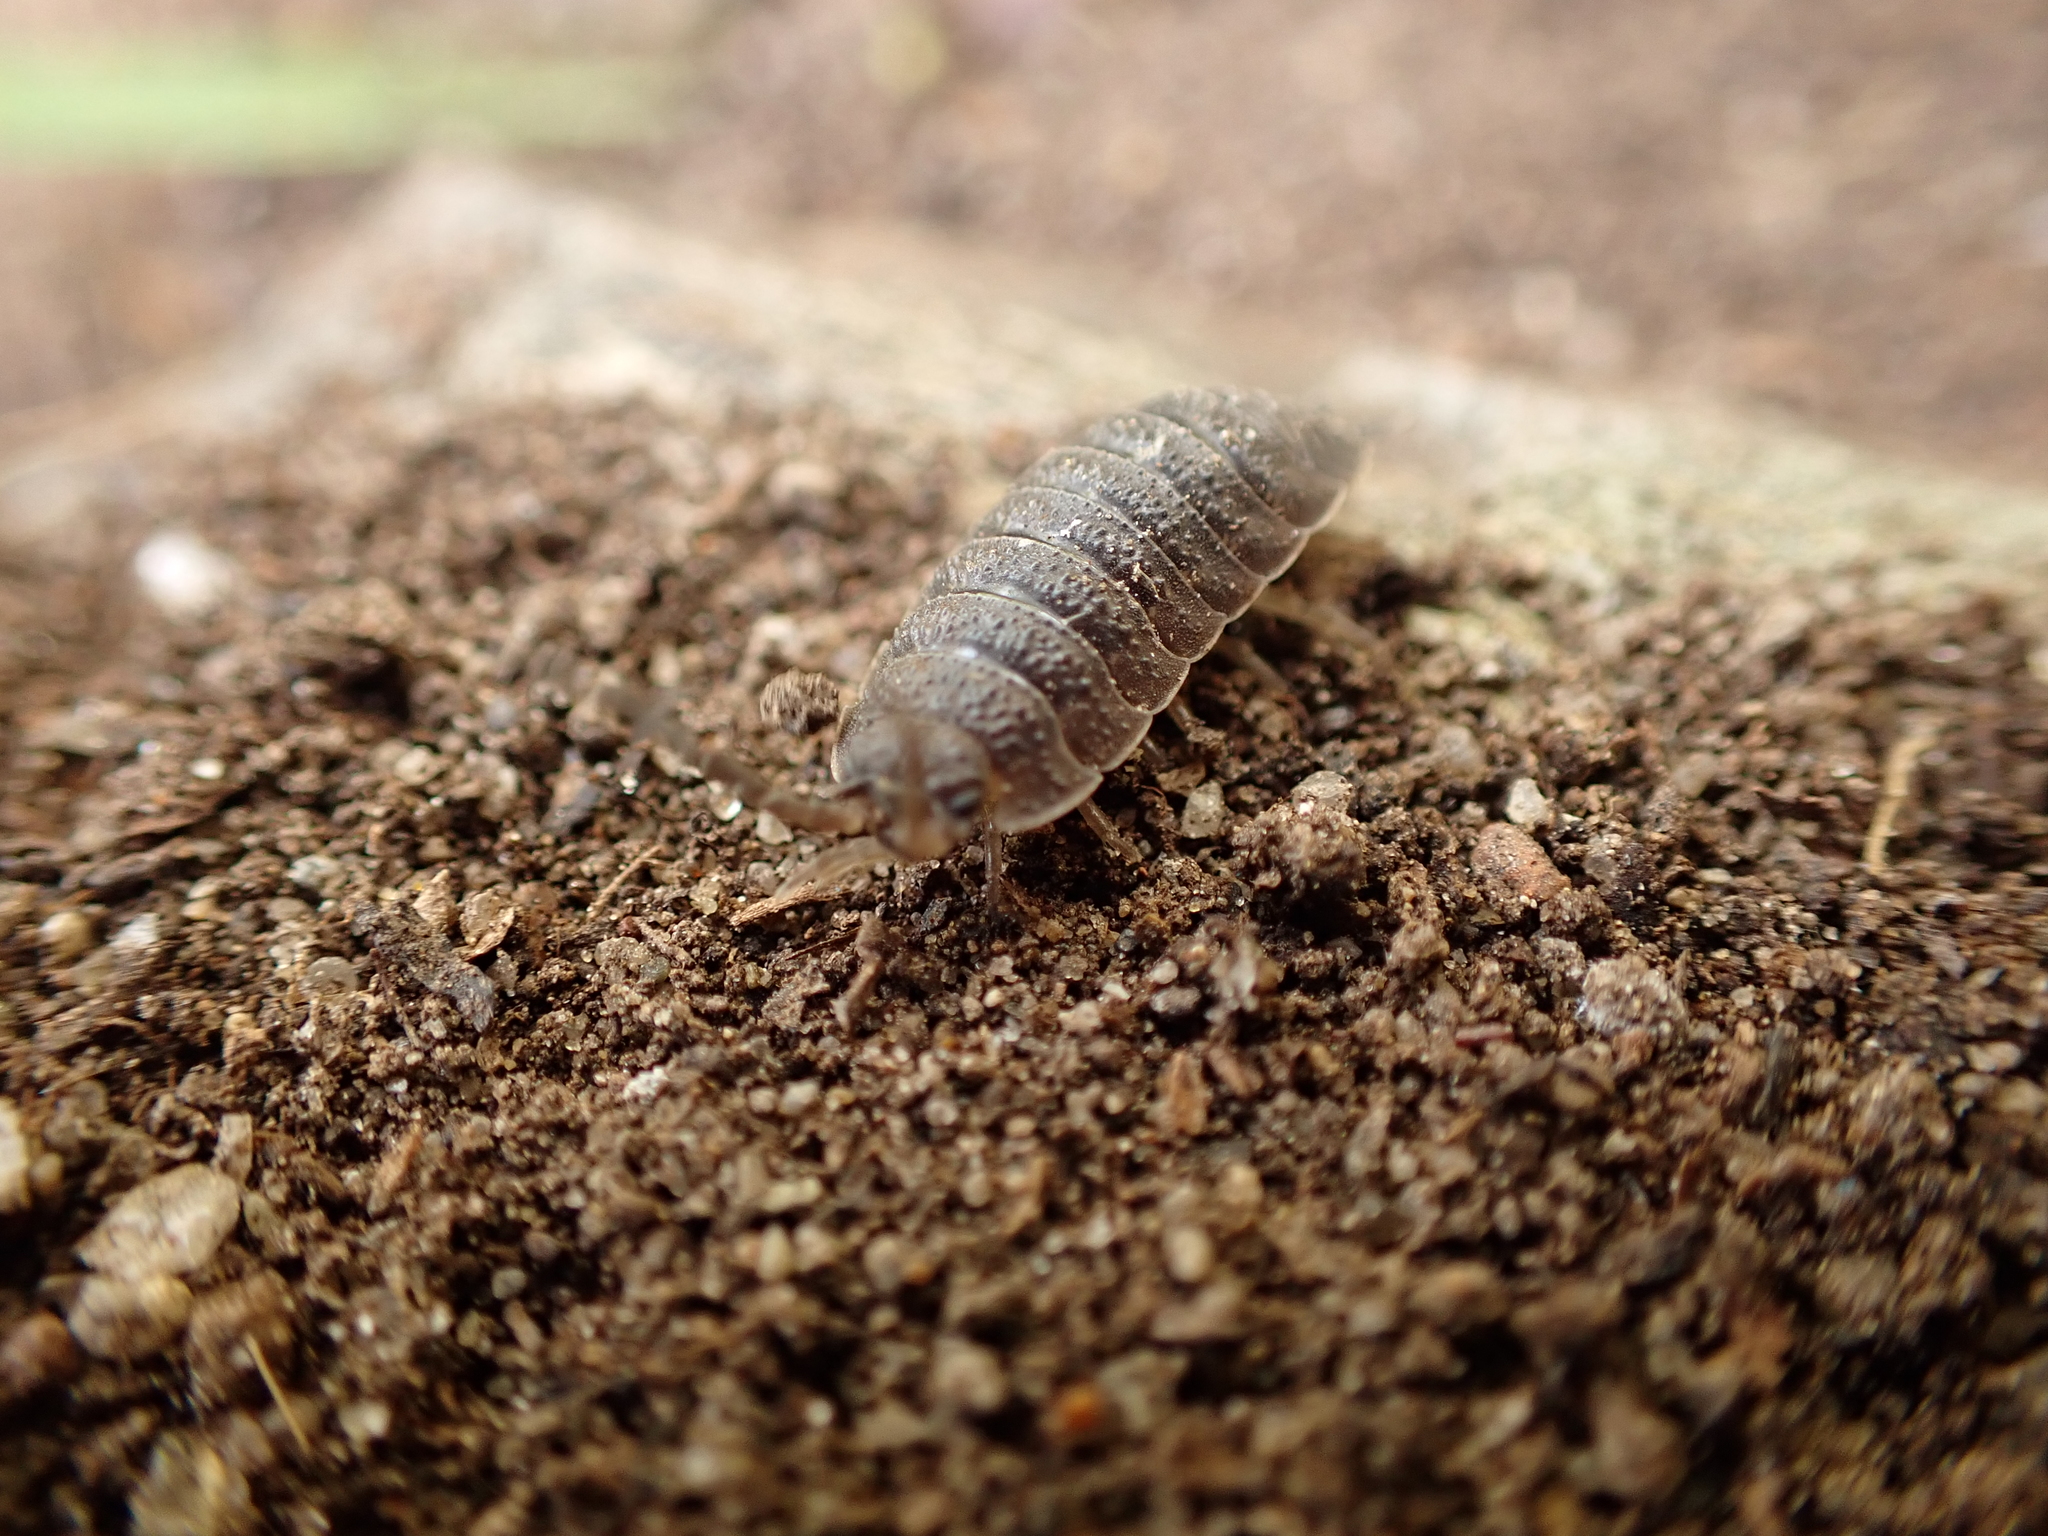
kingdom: Animalia
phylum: Arthropoda
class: Malacostraca
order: Isopoda
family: Porcellionidae
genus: Porcellio
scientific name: Porcellio scaber
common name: Common rough woodlouse
